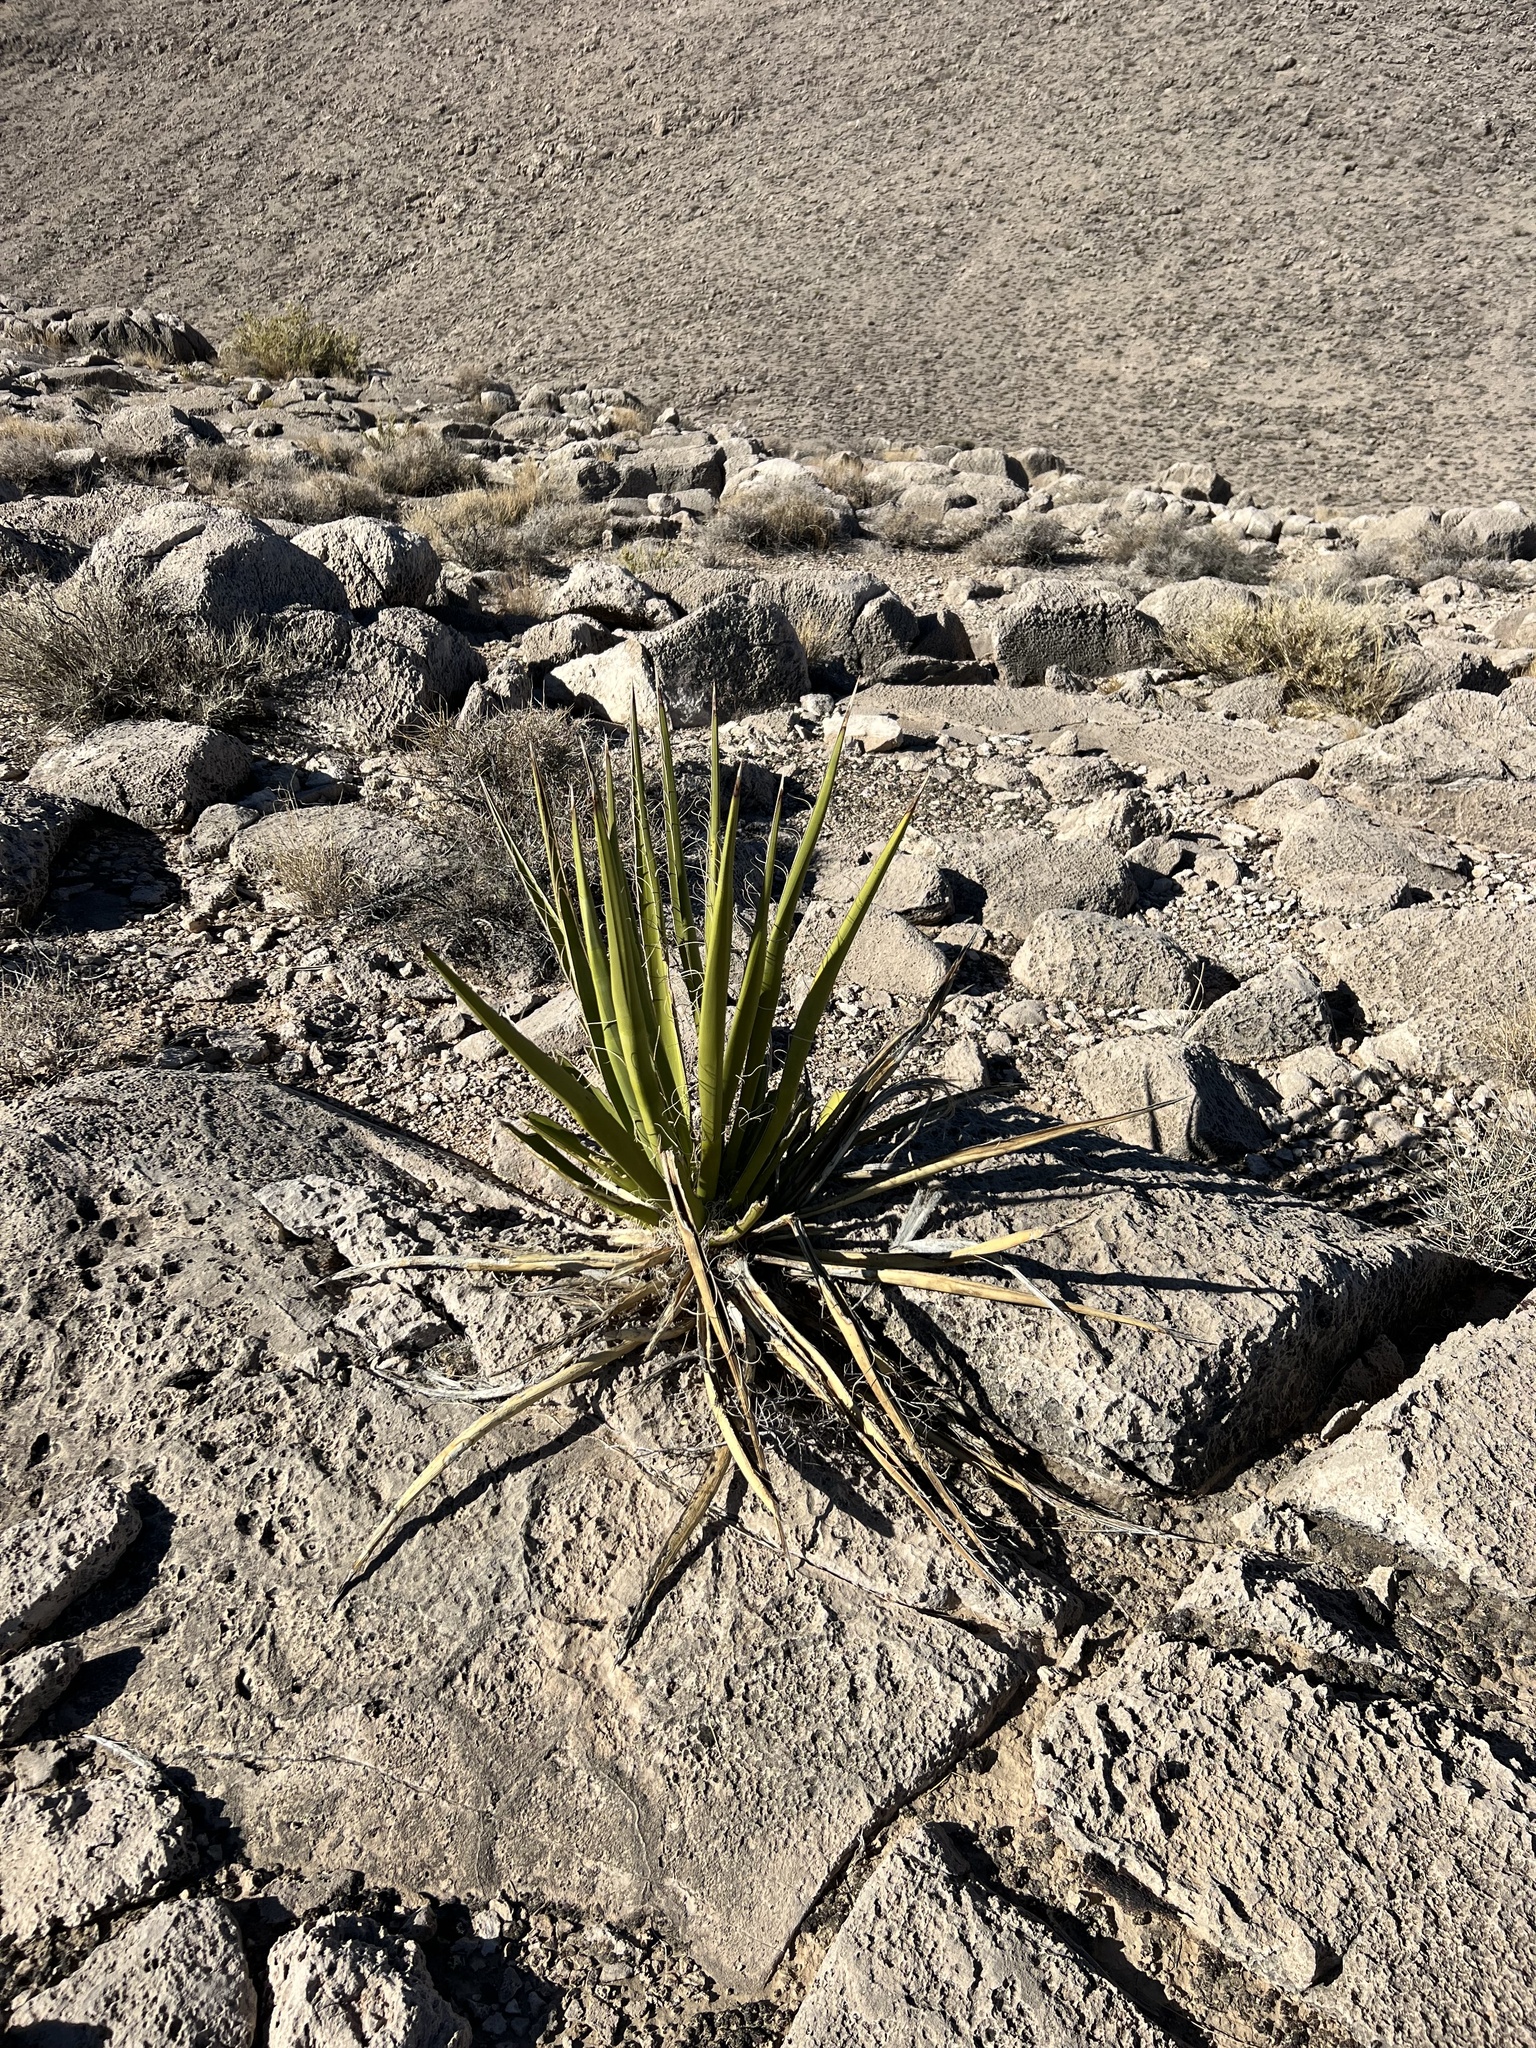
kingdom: Plantae
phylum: Tracheophyta
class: Liliopsida
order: Asparagales
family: Asparagaceae
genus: Yucca
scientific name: Yucca schidigera
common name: Mojave yucca
